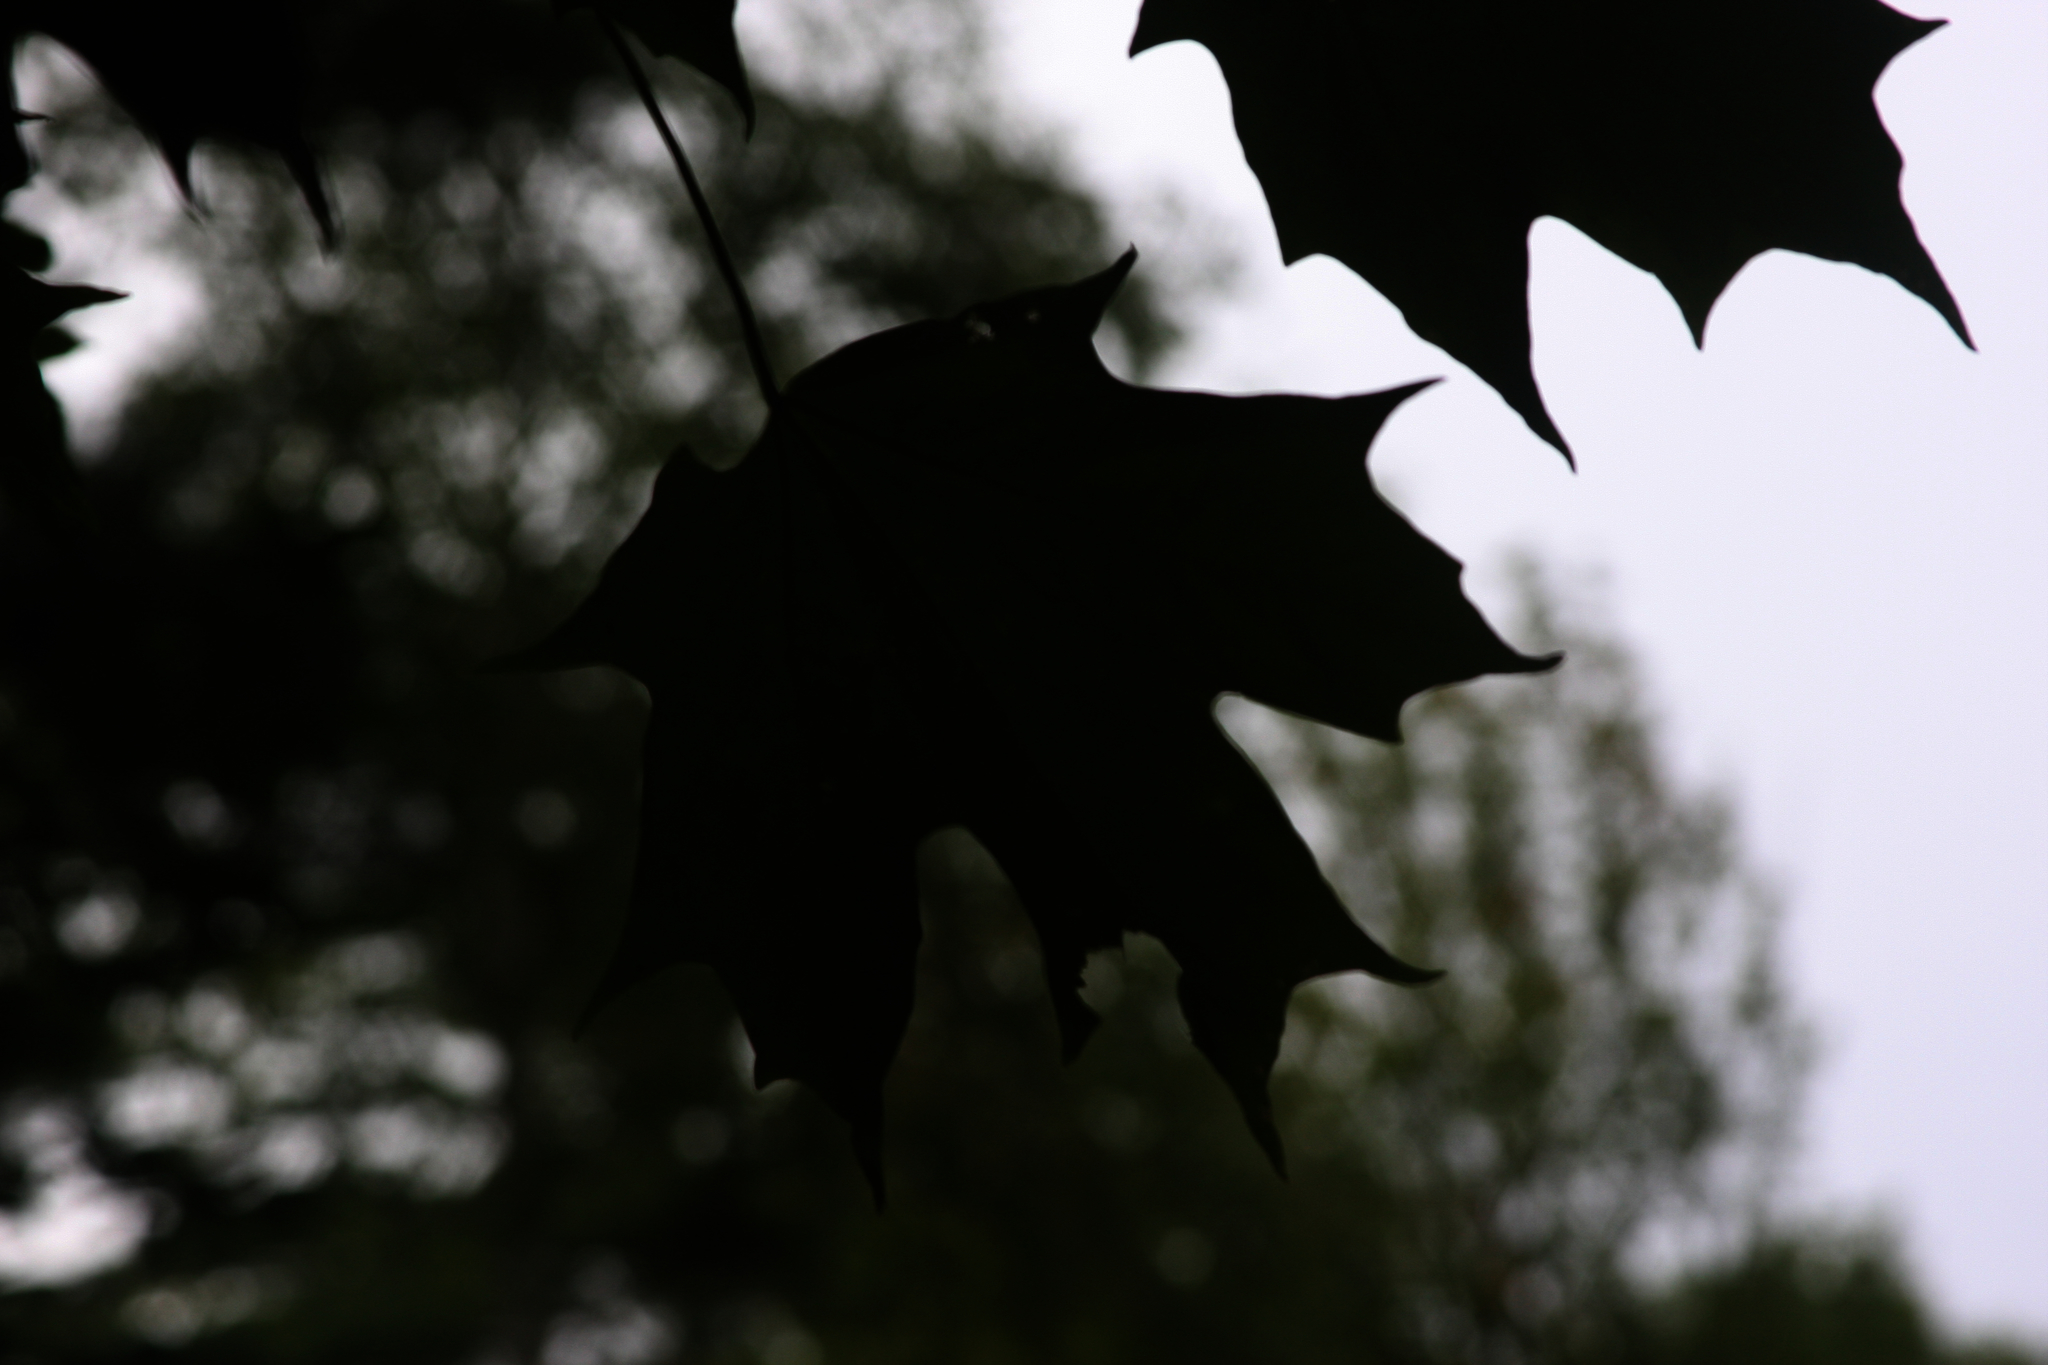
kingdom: Plantae
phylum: Tracheophyta
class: Magnoliopsida
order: Sapindales
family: Sapindaceae
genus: Acer
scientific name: Acer saccharum
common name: Sugar maple
